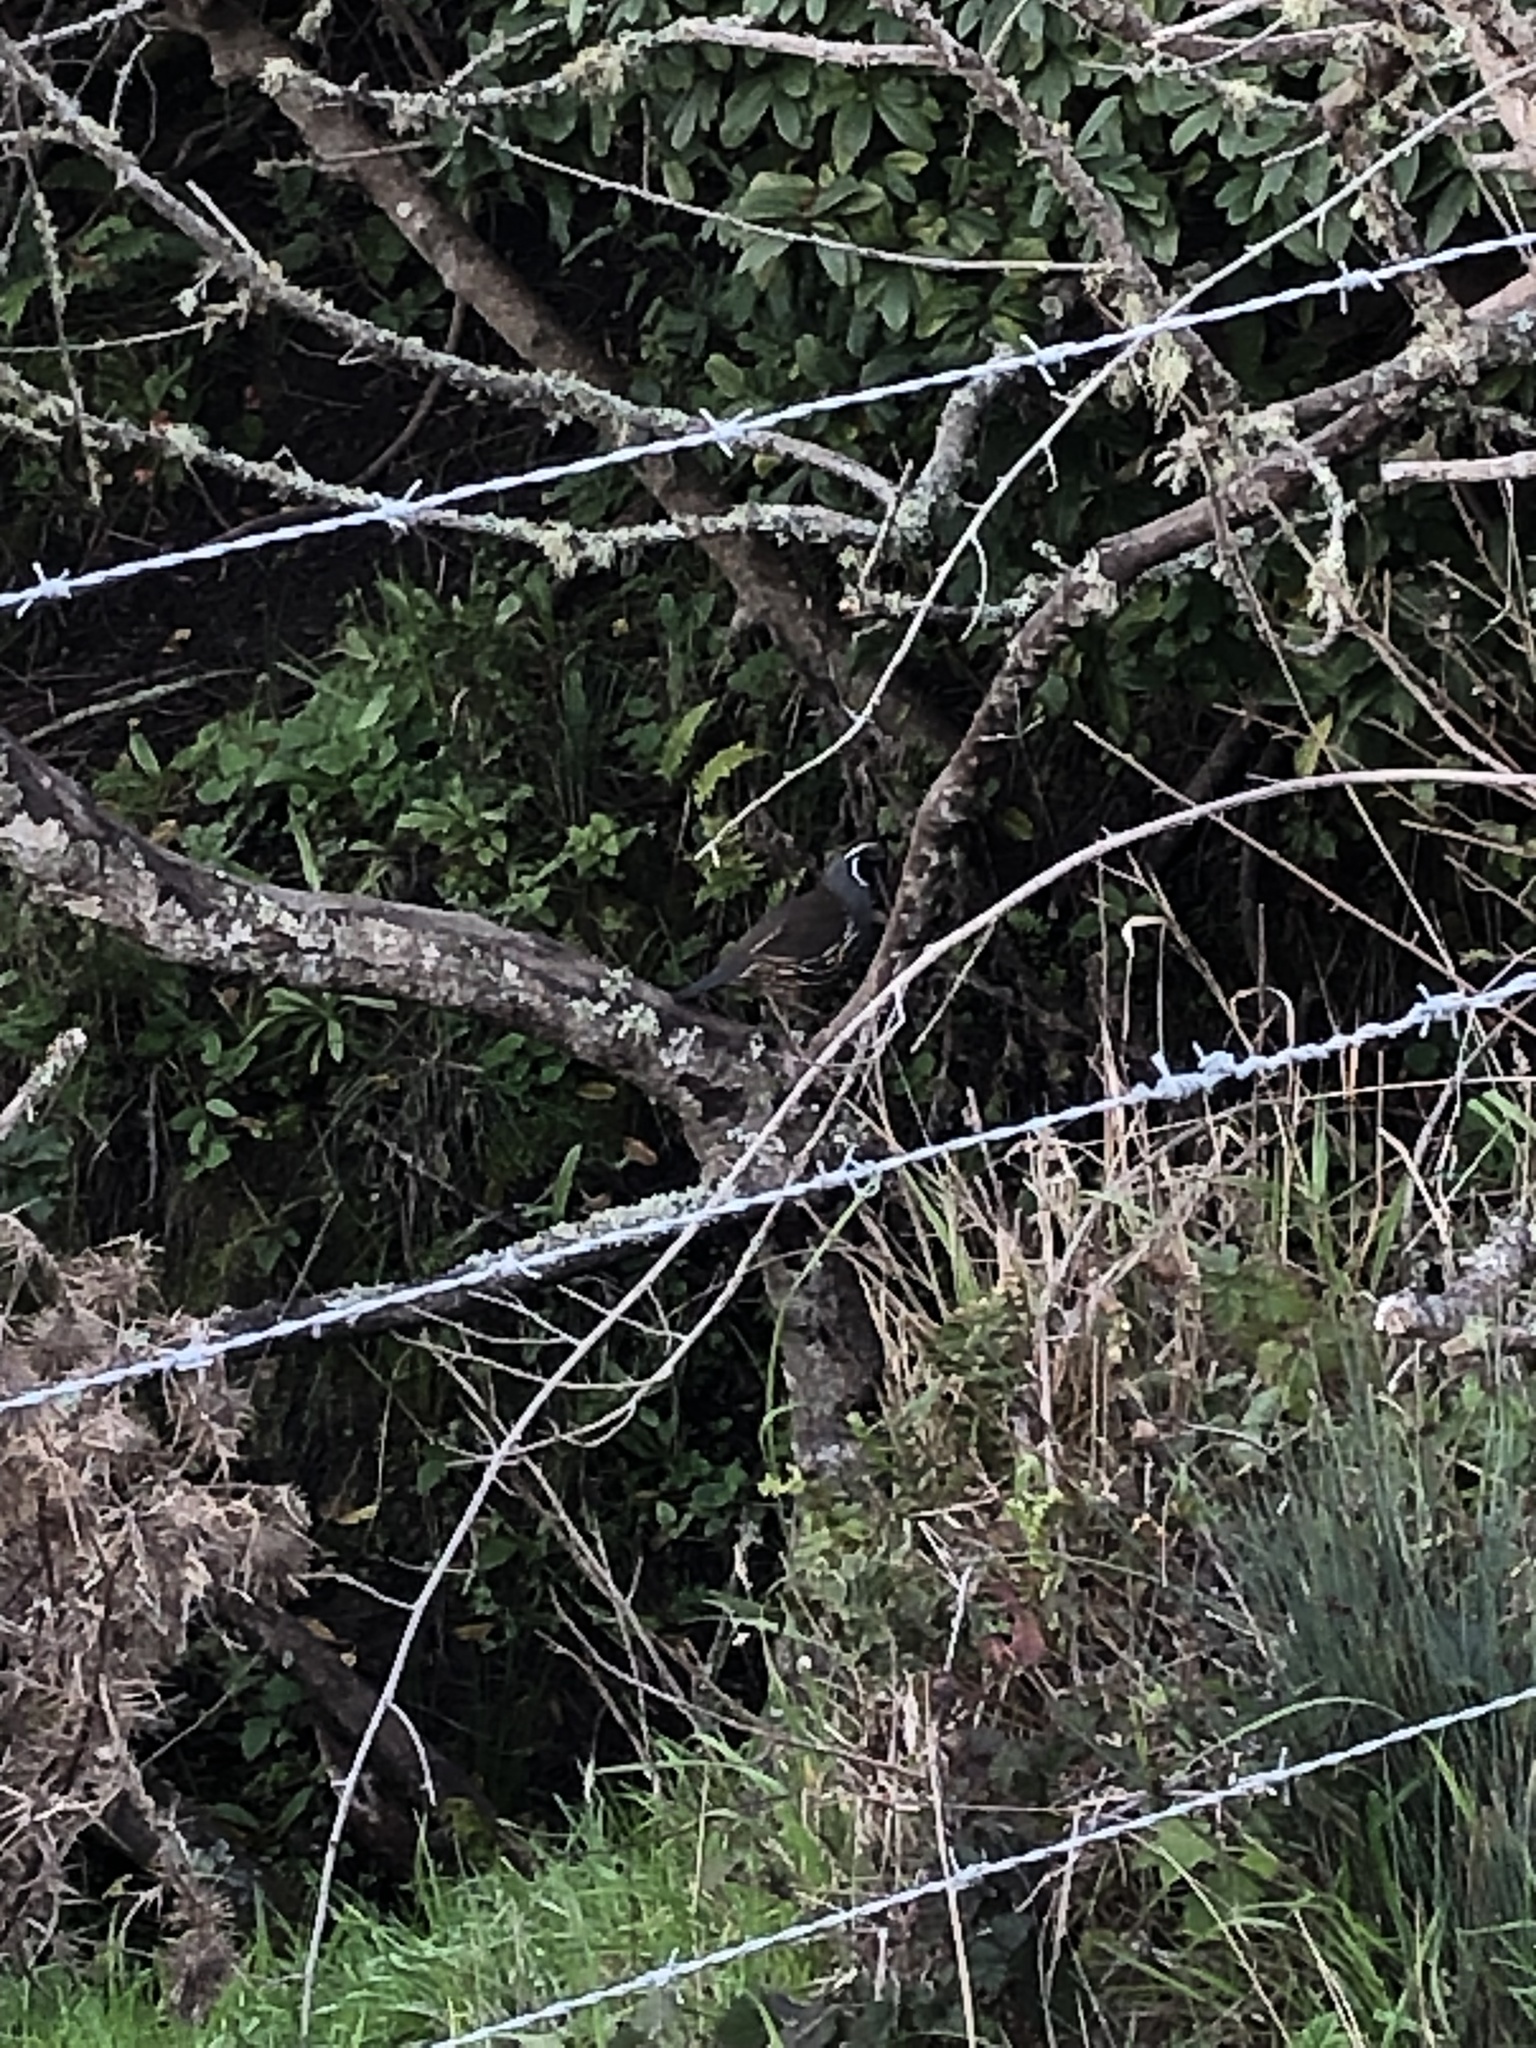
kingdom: Animalia
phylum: Chordata
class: Aves
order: Galliformes
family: Odontophoridae
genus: Callipepla
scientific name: Callipepla californica
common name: California quail
